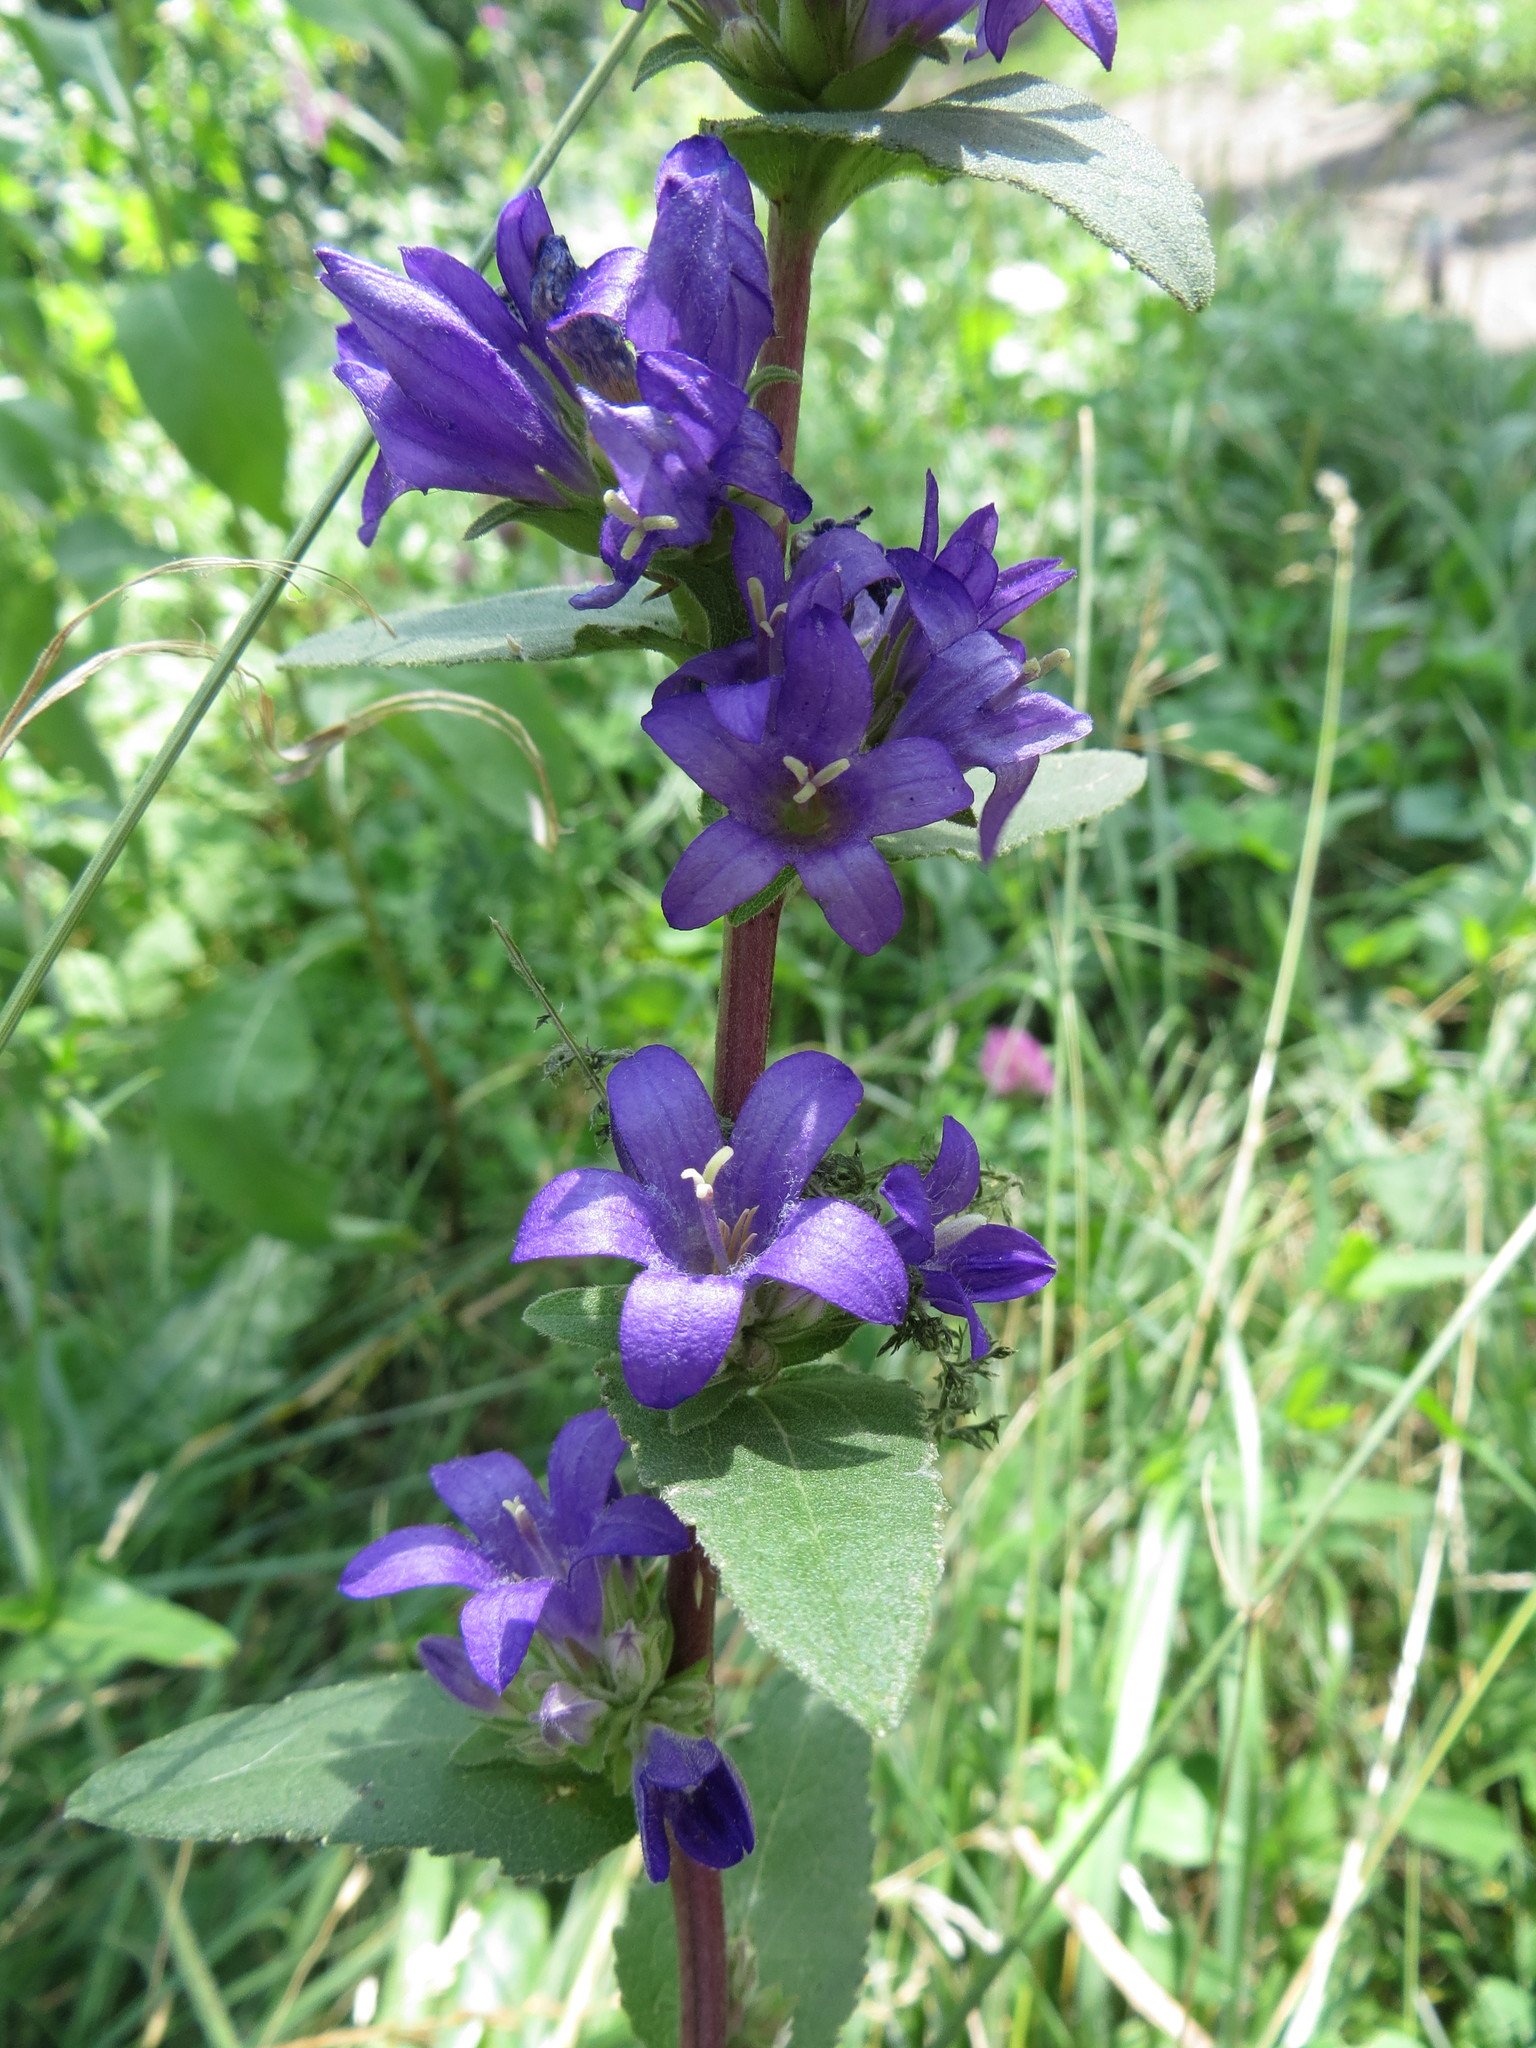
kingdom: Plantae
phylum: Tracheophyta
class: Magnoliopsida
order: Asterales
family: Campanulaceae
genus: Campanula
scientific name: Campanula glomerata
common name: Clustered bellflower
